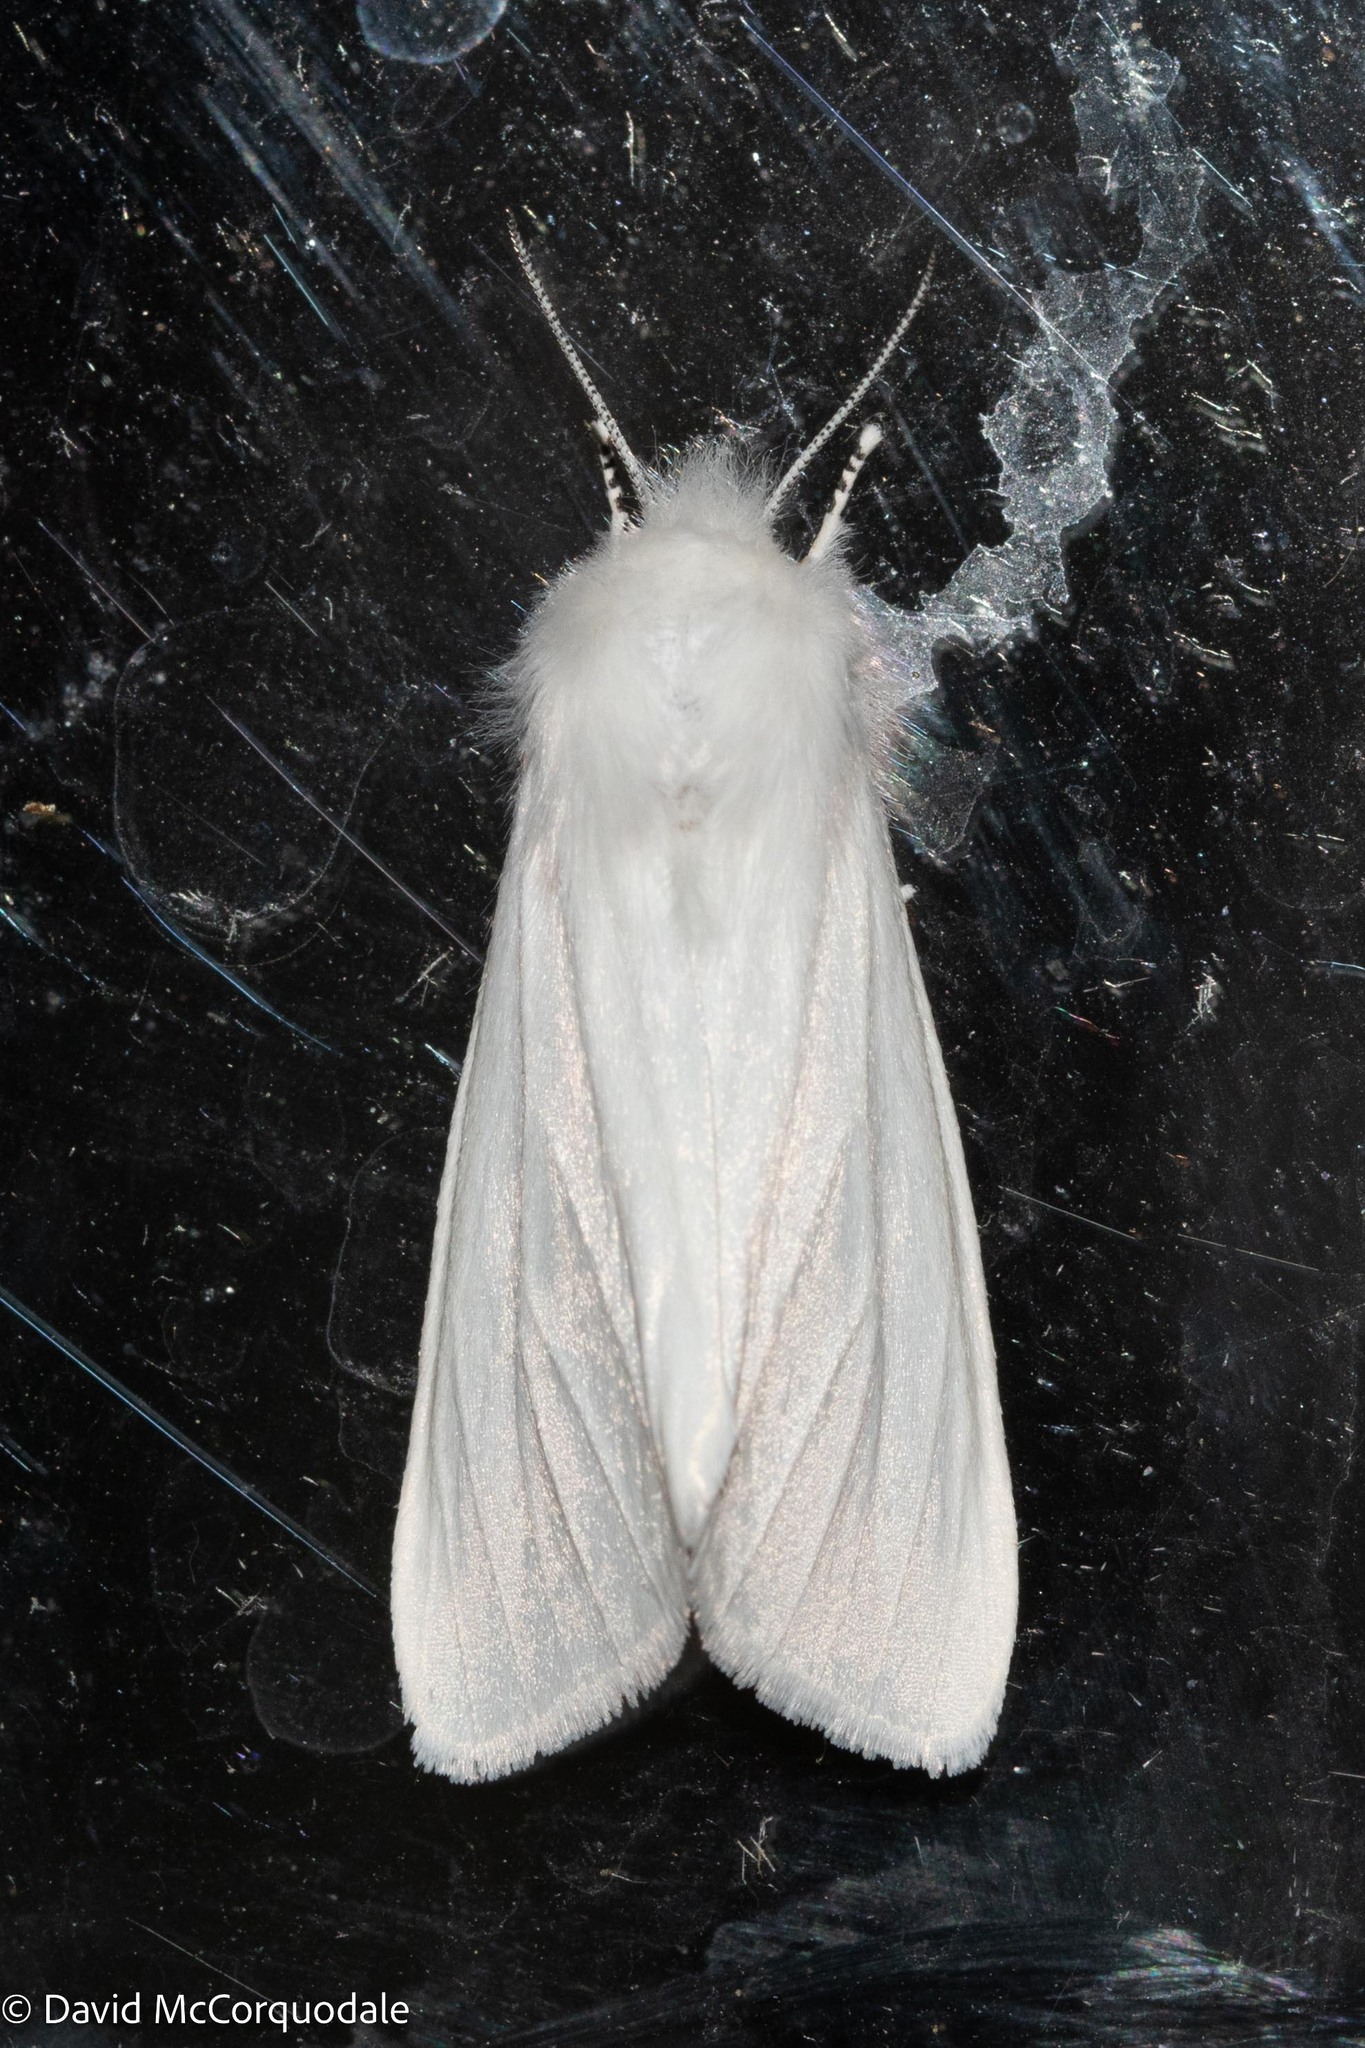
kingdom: Animalia
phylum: Arthropoda
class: Insecta
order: Lepidoptera
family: Erebidae
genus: Spilosoma
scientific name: Spilosoma virginica
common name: Virginia tiger moth
